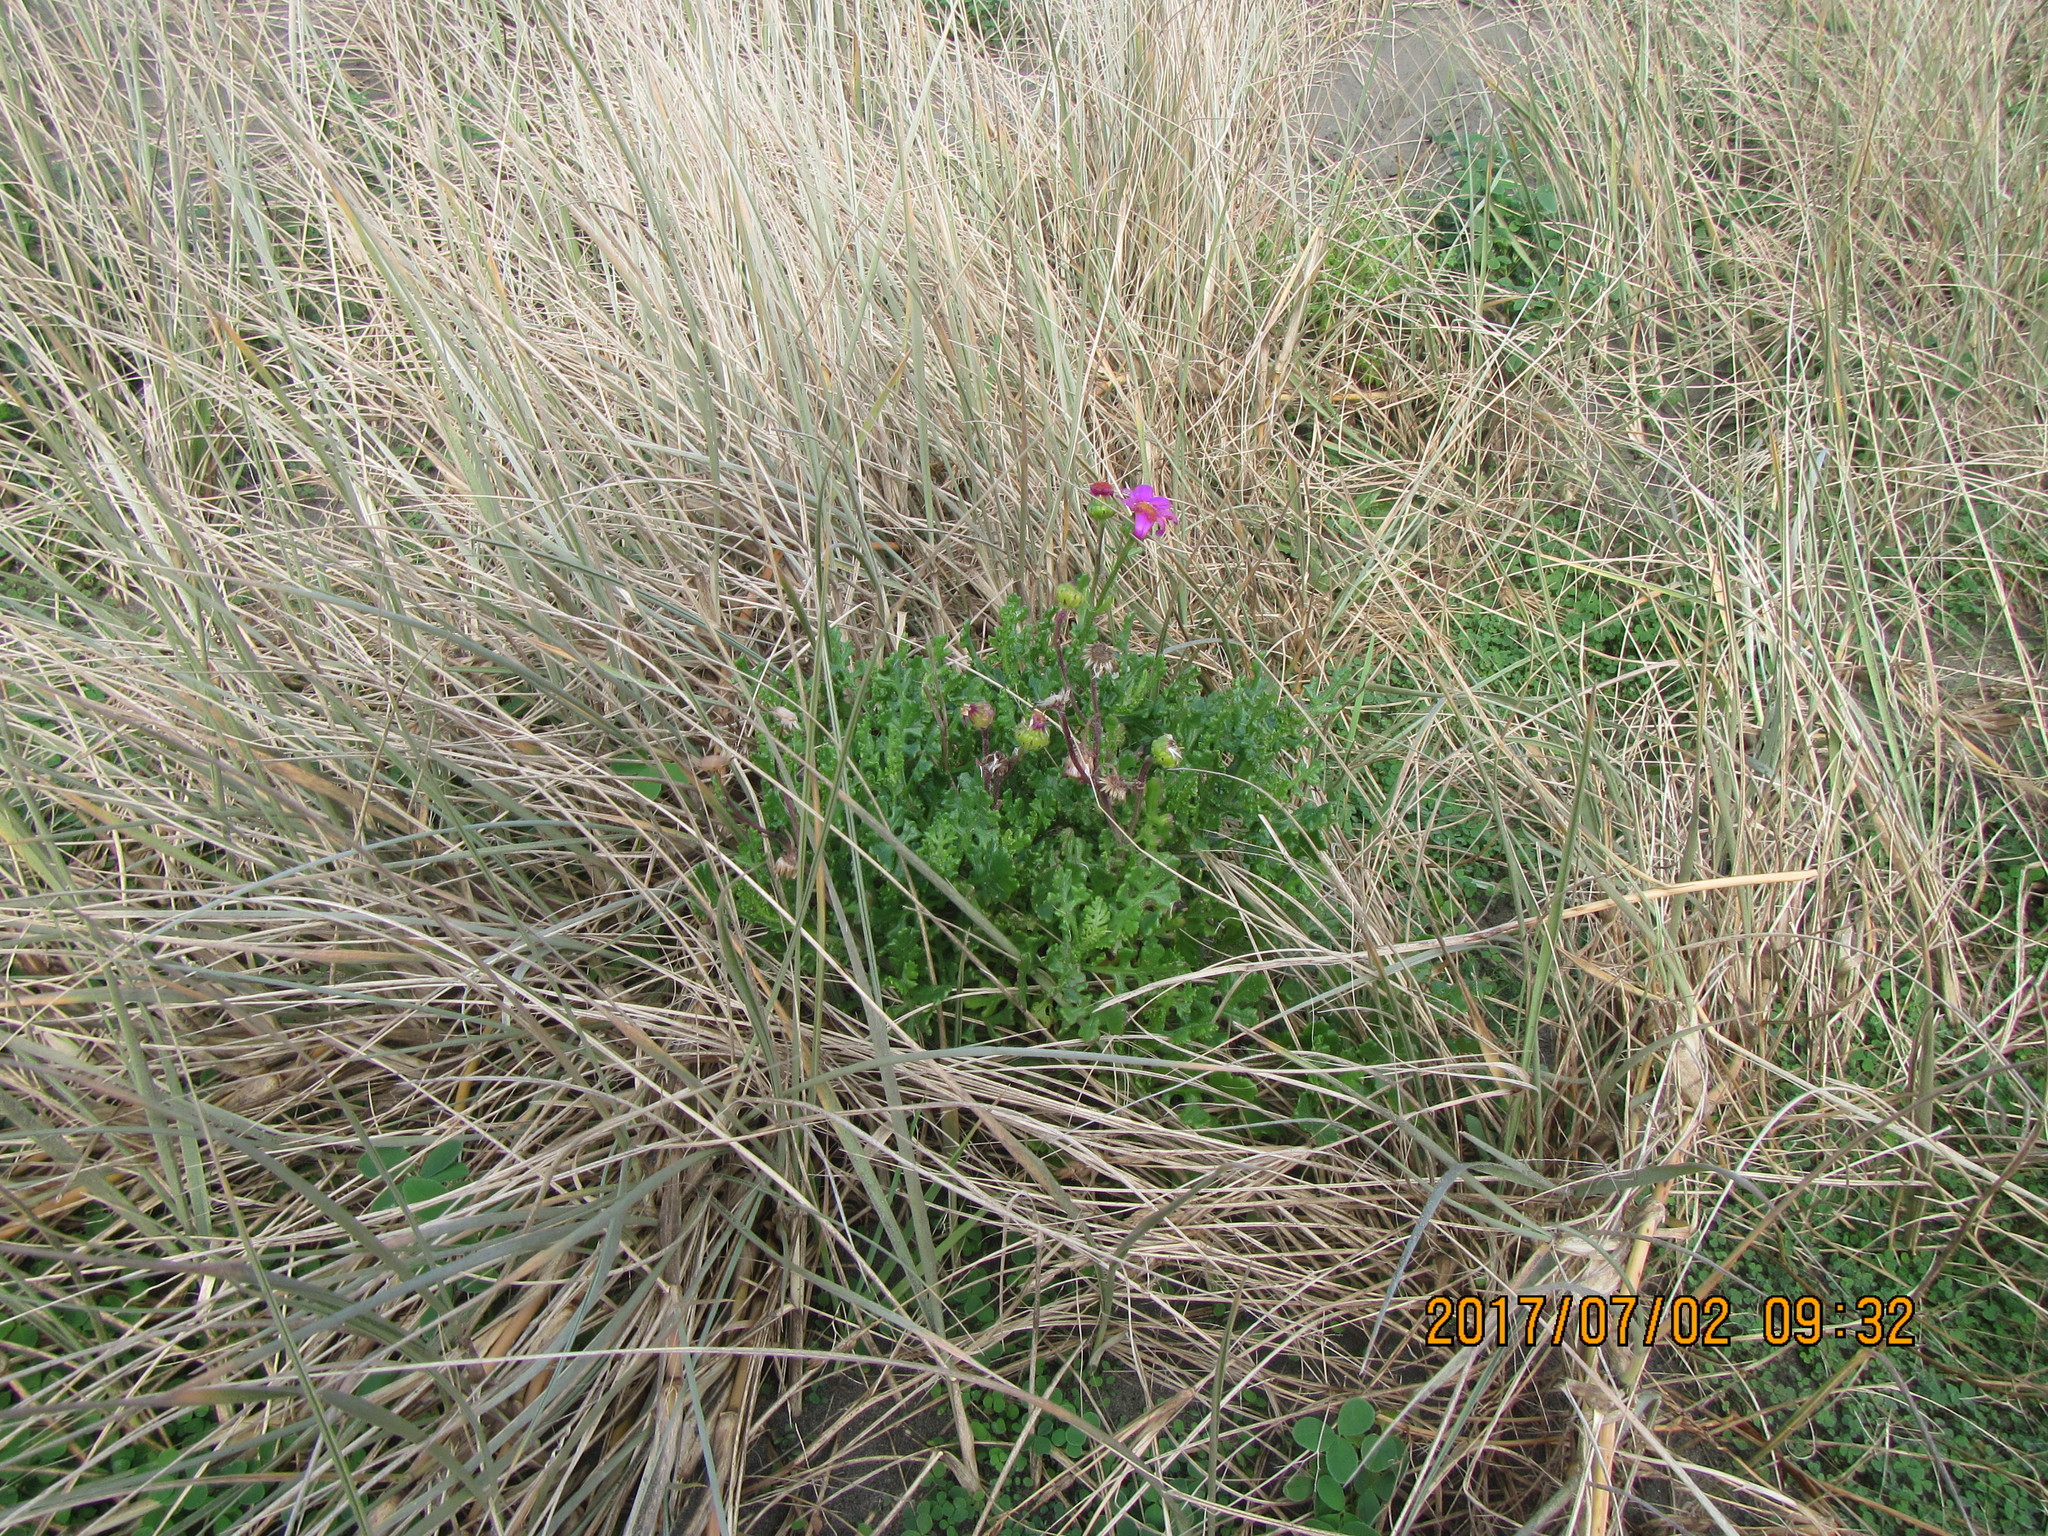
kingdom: Plantae
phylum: Tracheophyta
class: Magnoliopsida
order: Asterales
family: Asteraceae
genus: Senecio
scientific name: Senecio elegans
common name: Purple groundsel
